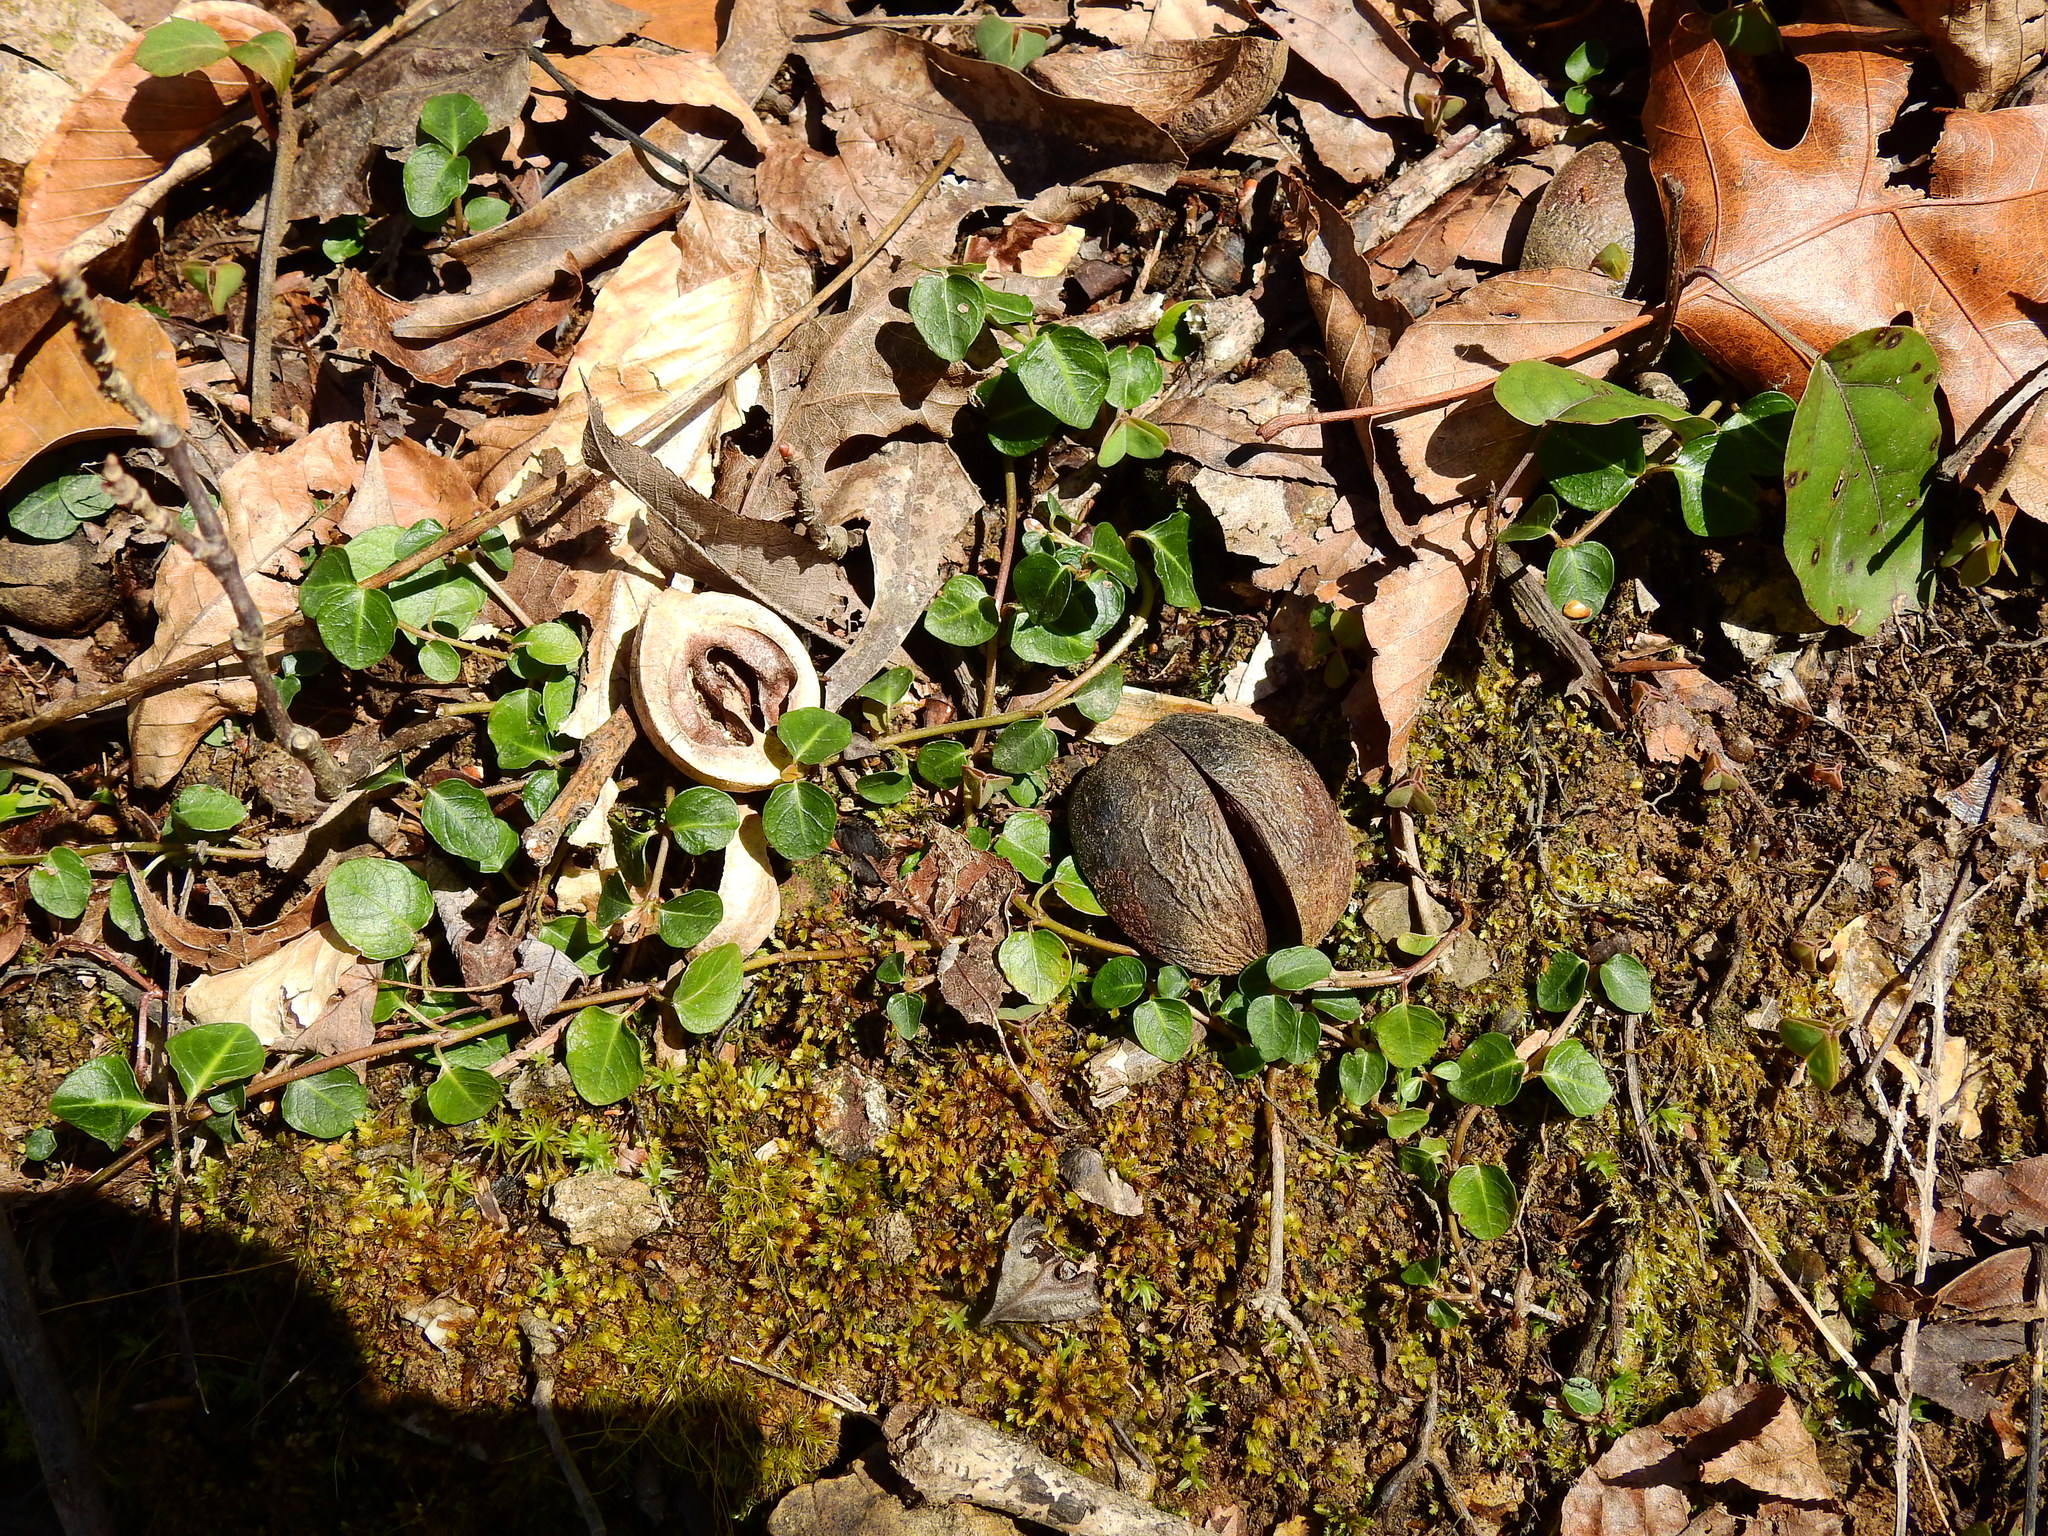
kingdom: Plantae
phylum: Tracheophyta
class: Magnoliopsida
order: Gentianales
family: Rubiaceae
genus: Mitchella
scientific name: Mitchella repens
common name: Partridge-berry
